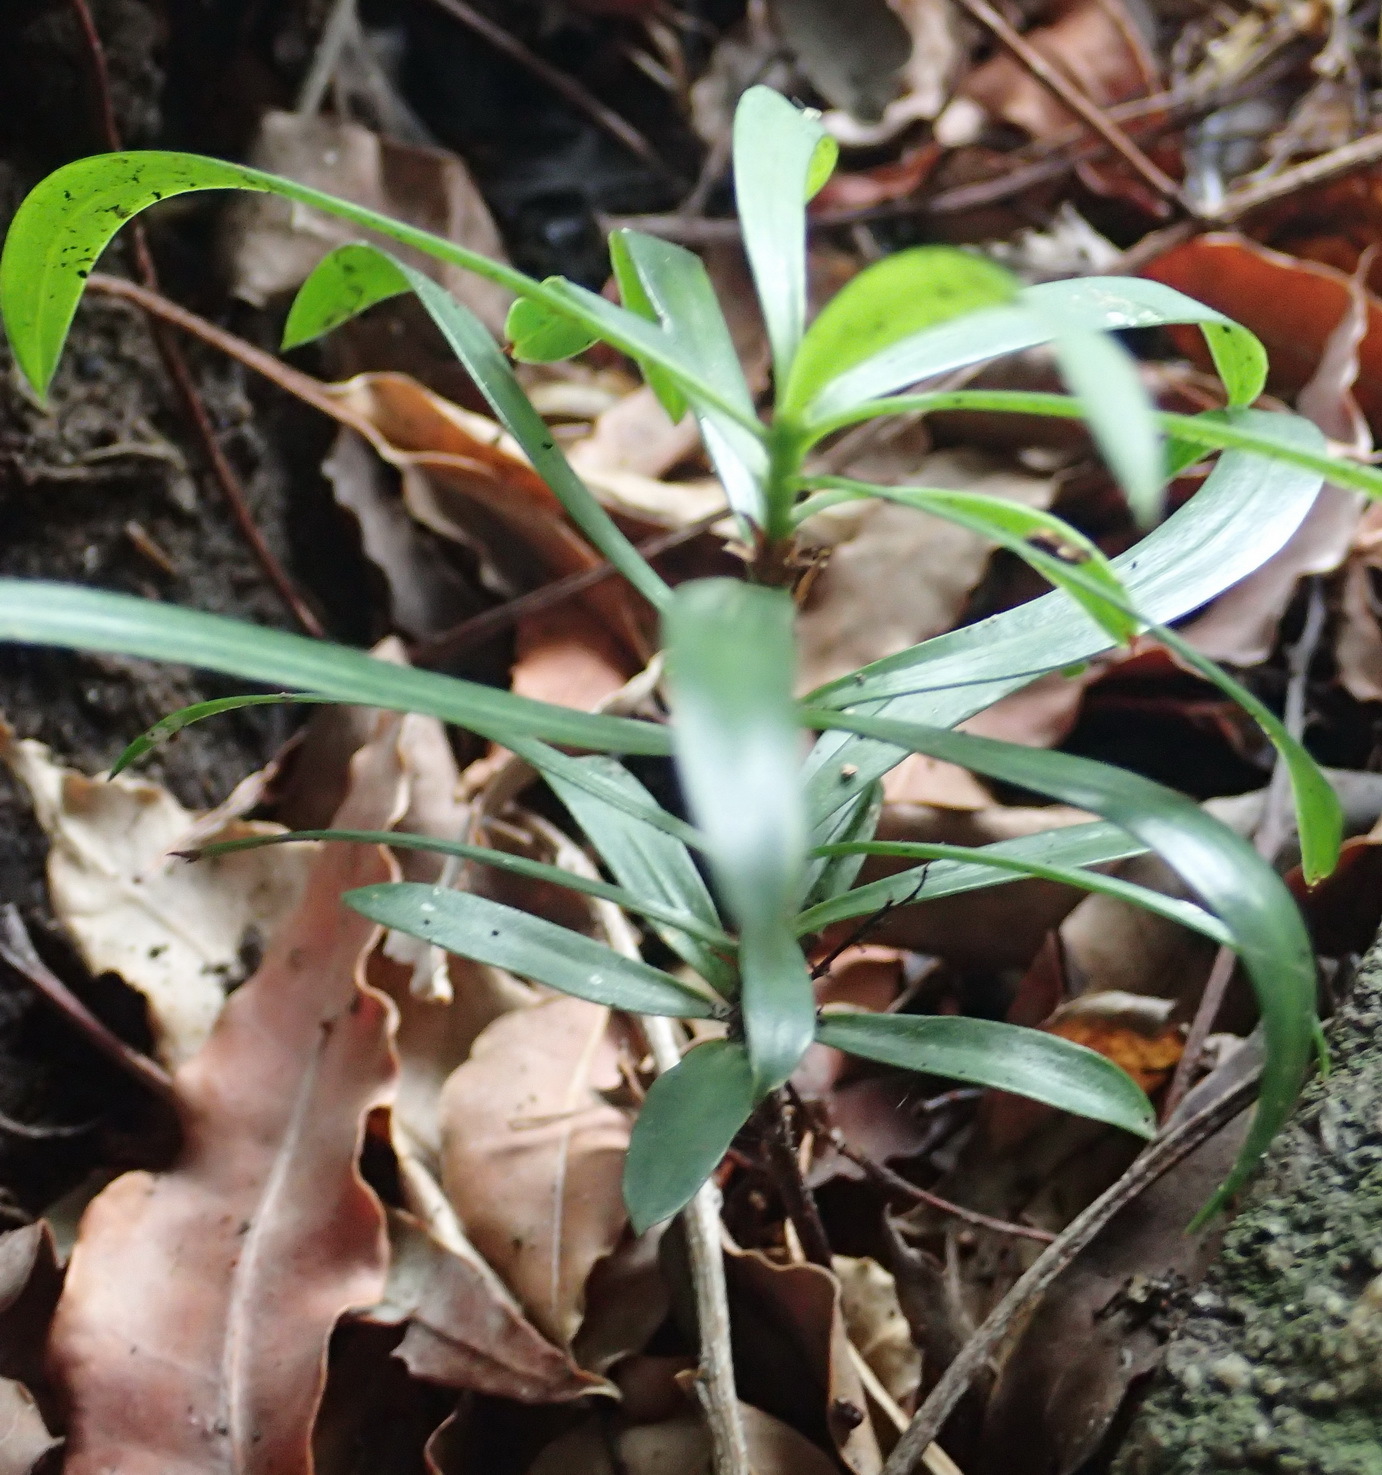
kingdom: Plantae
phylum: Tracheophyta
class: Pinopsida
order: Pinales
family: Podocarpaceae
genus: Afrocarpus
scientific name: Afrocarpus falcatus
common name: Bastard yellowwood
